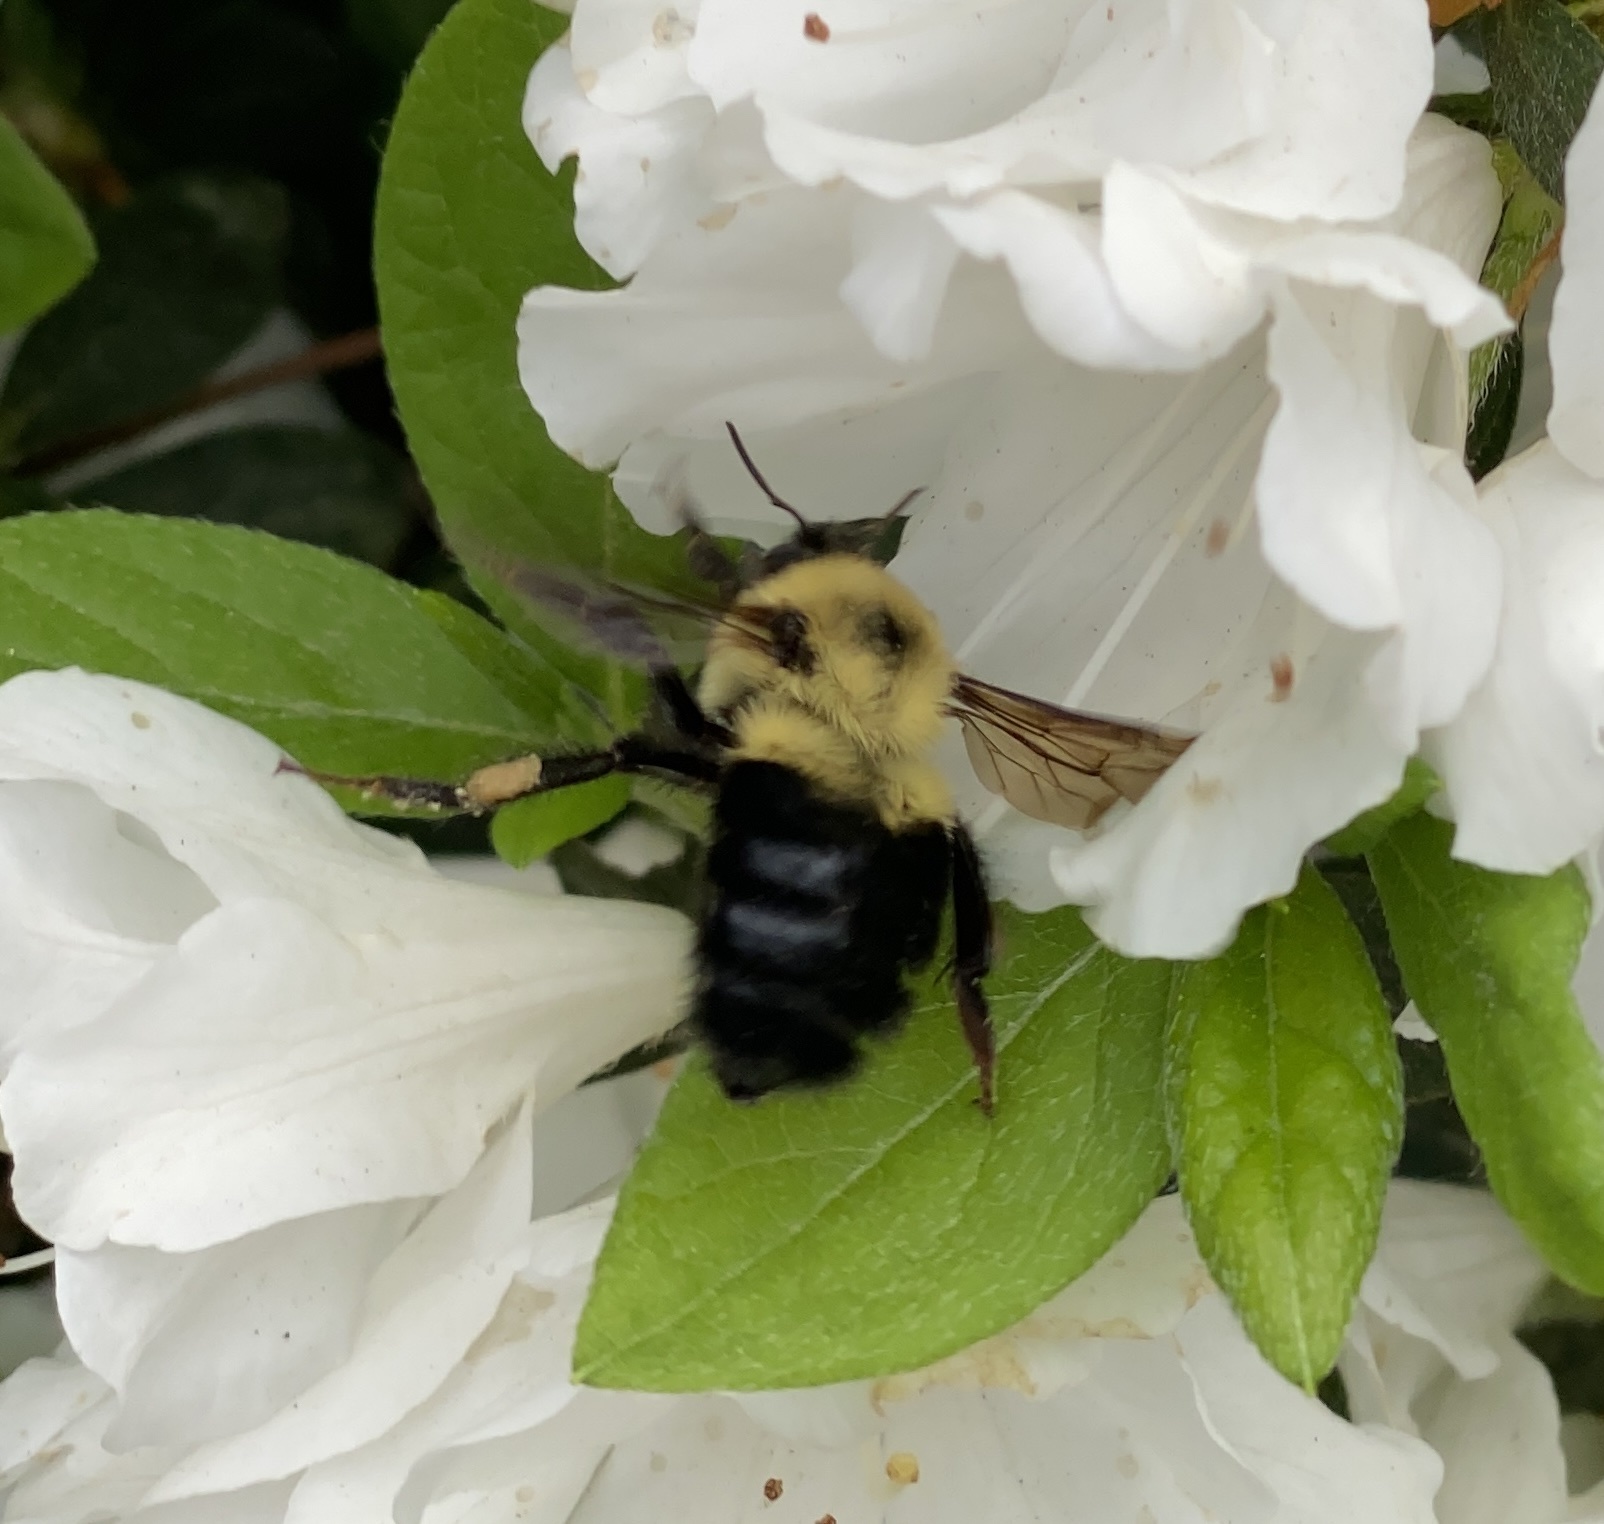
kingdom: Animalia
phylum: Arthropoda
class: Insecta
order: Hymenoptera
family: Apidae
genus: Bombus
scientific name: Bombus bimaculatus
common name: Two-spotted bumble bee
